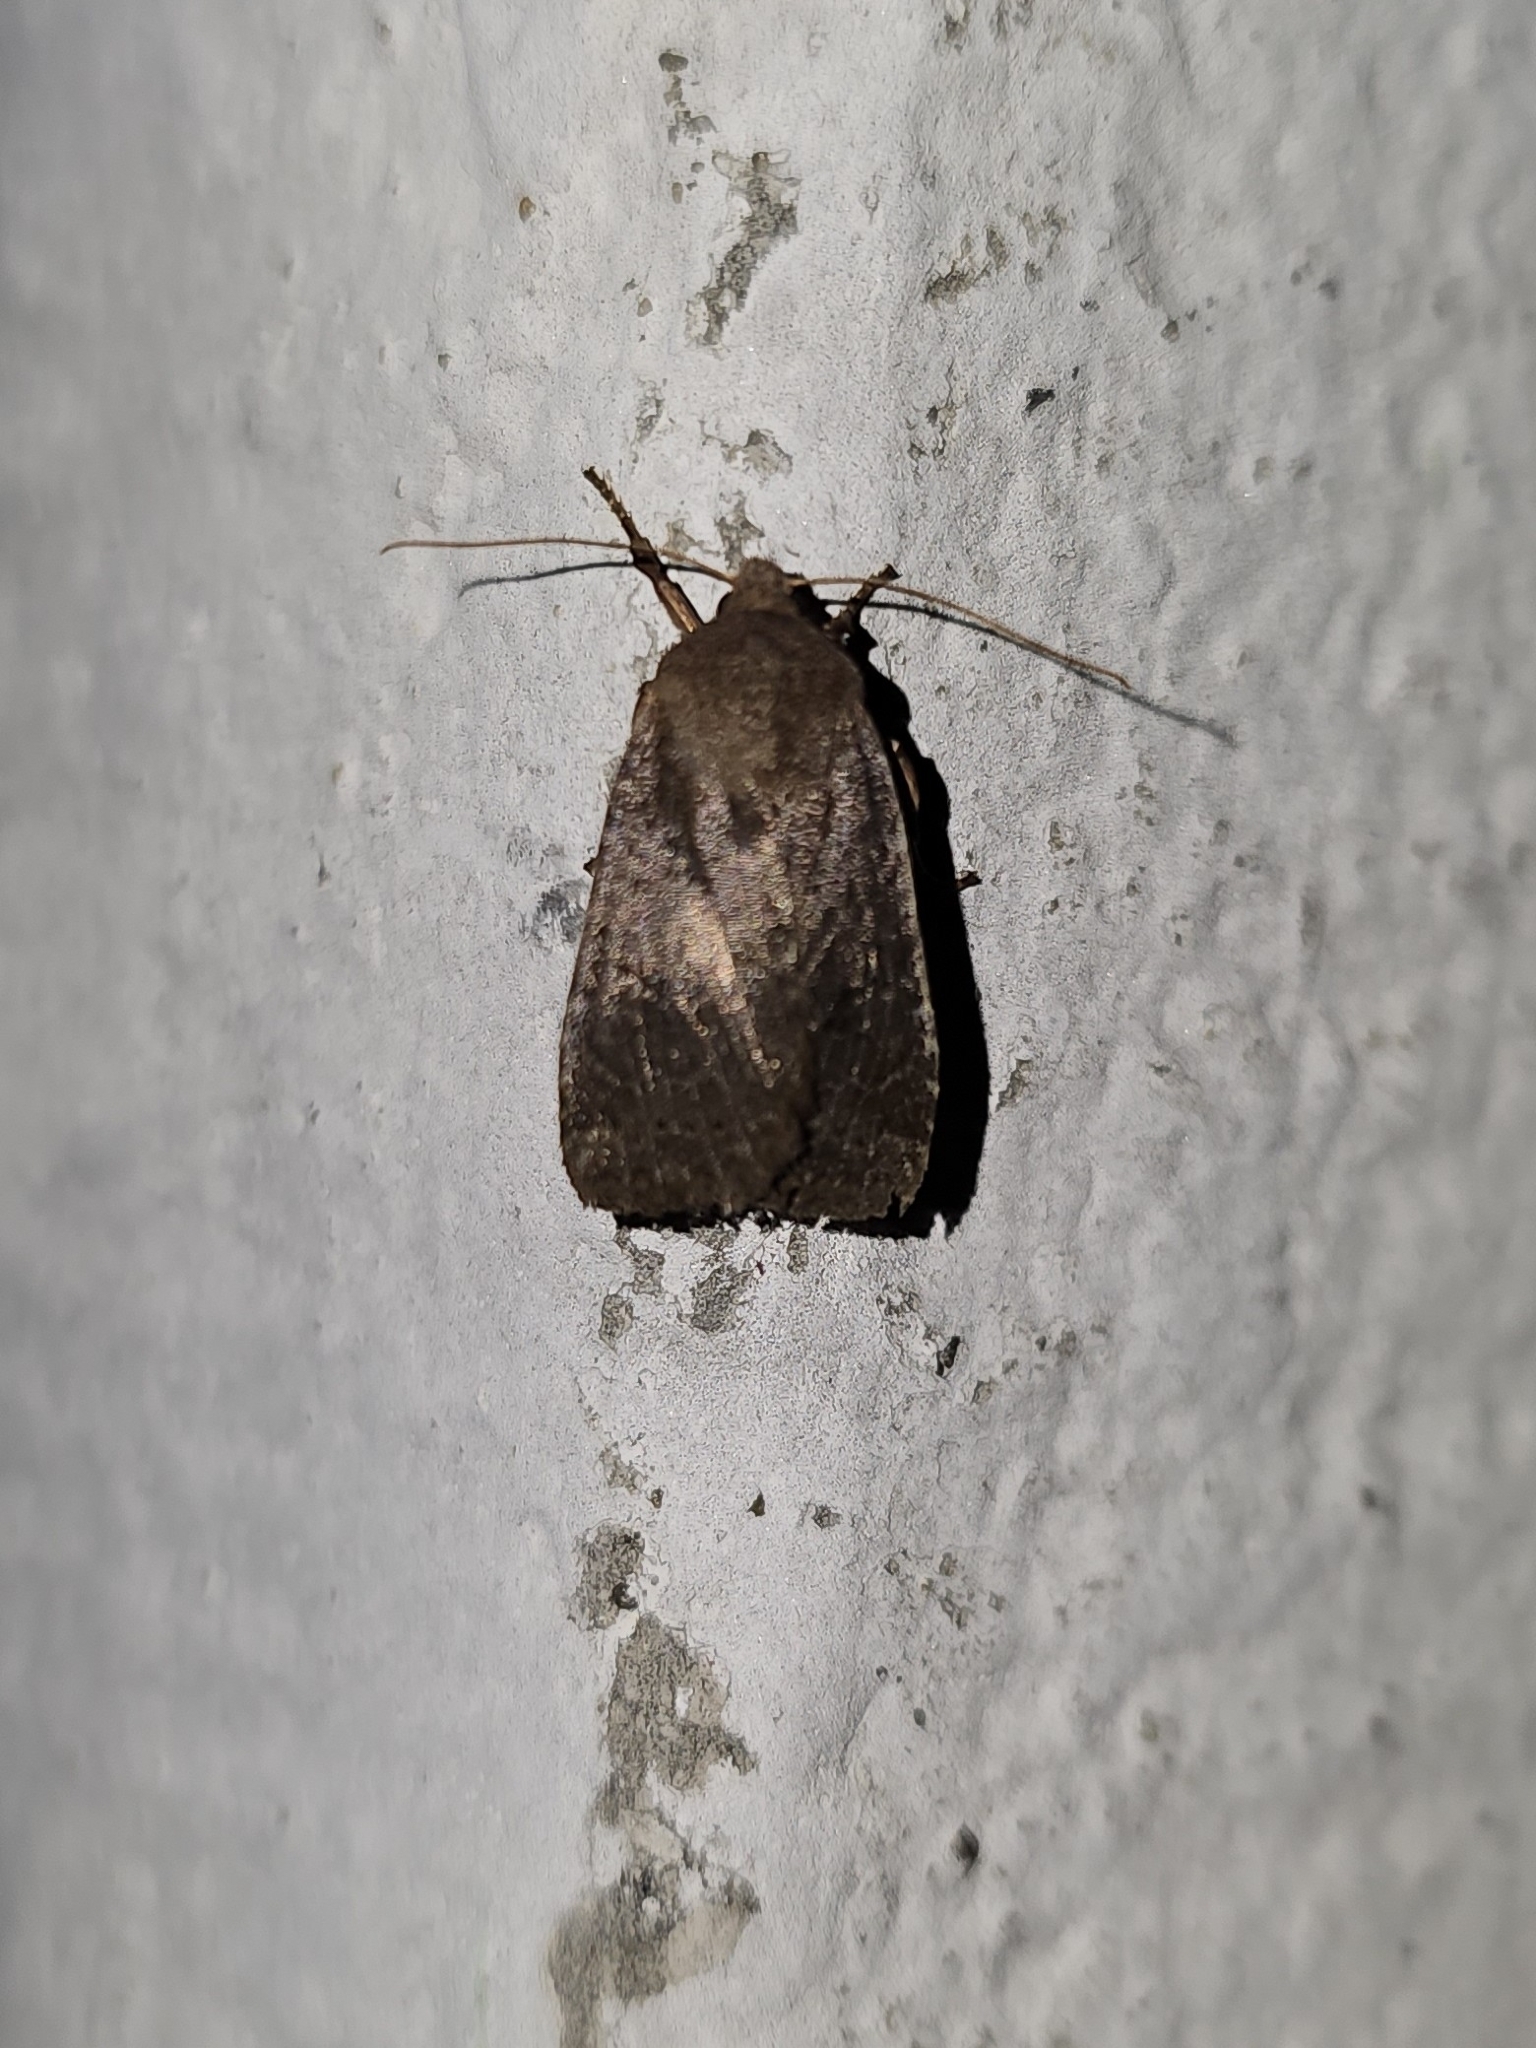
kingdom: Animalia
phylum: Arthropoda
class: Insecta
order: Lepidoptera
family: Noctuidae
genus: Conistra
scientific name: Conistra vaccinii
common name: Chestnut
